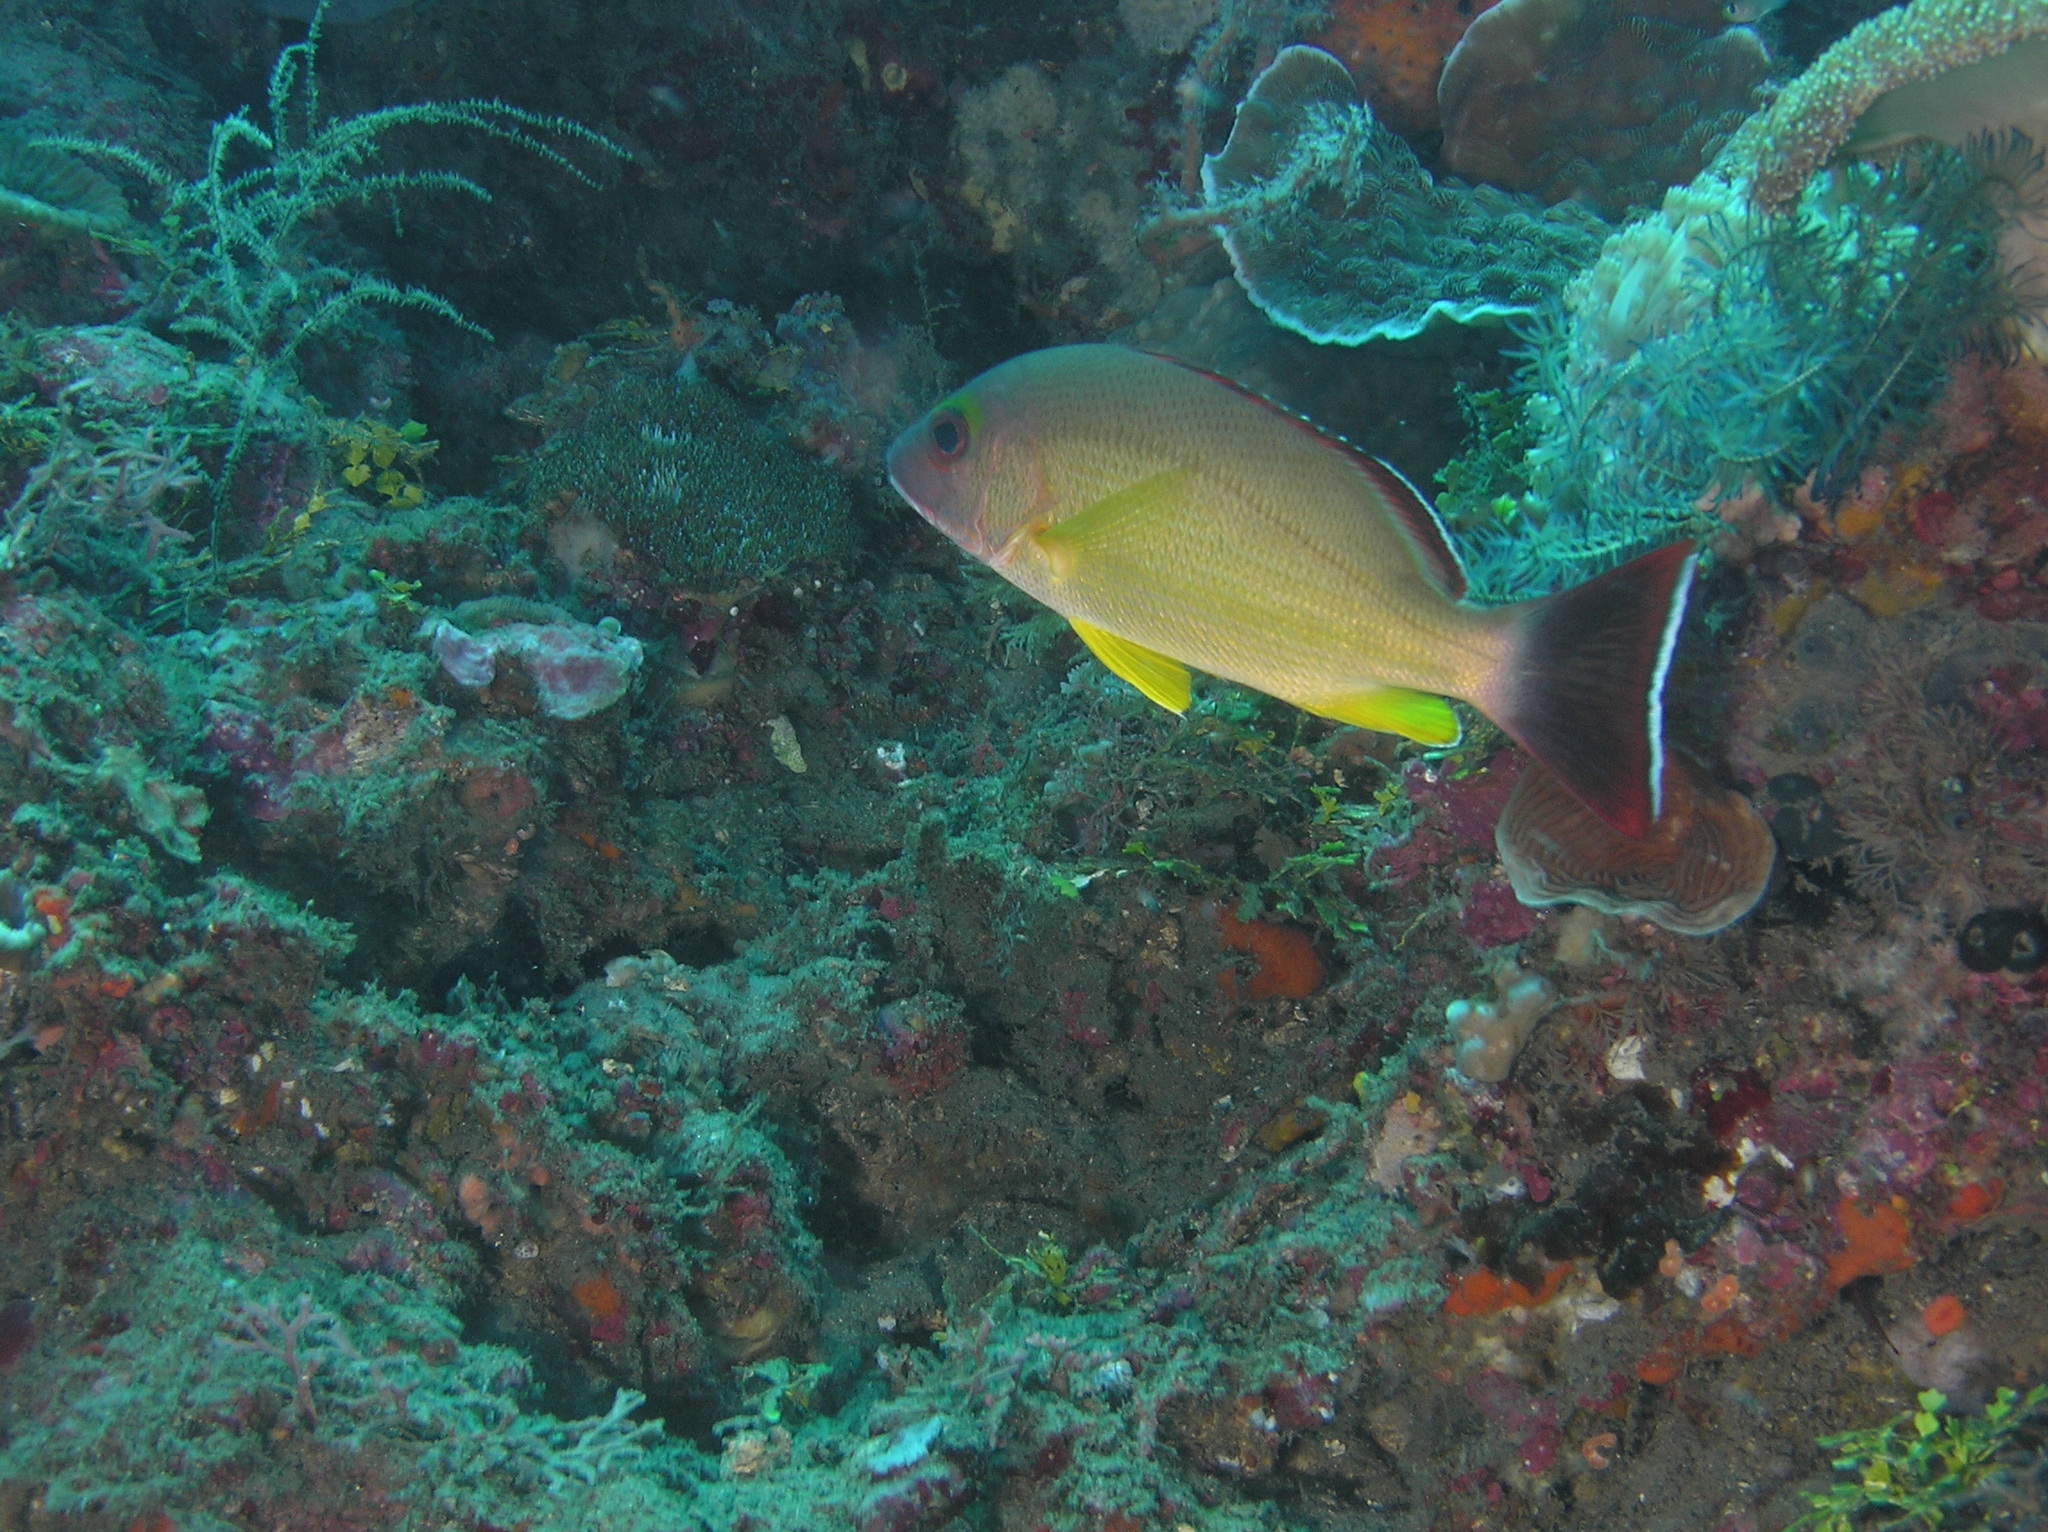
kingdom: Animalia
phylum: Chordata
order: Perciformes
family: Lutjanidae
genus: Lutjanus
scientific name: Lutjanus fulvus
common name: Blacktail snapper
